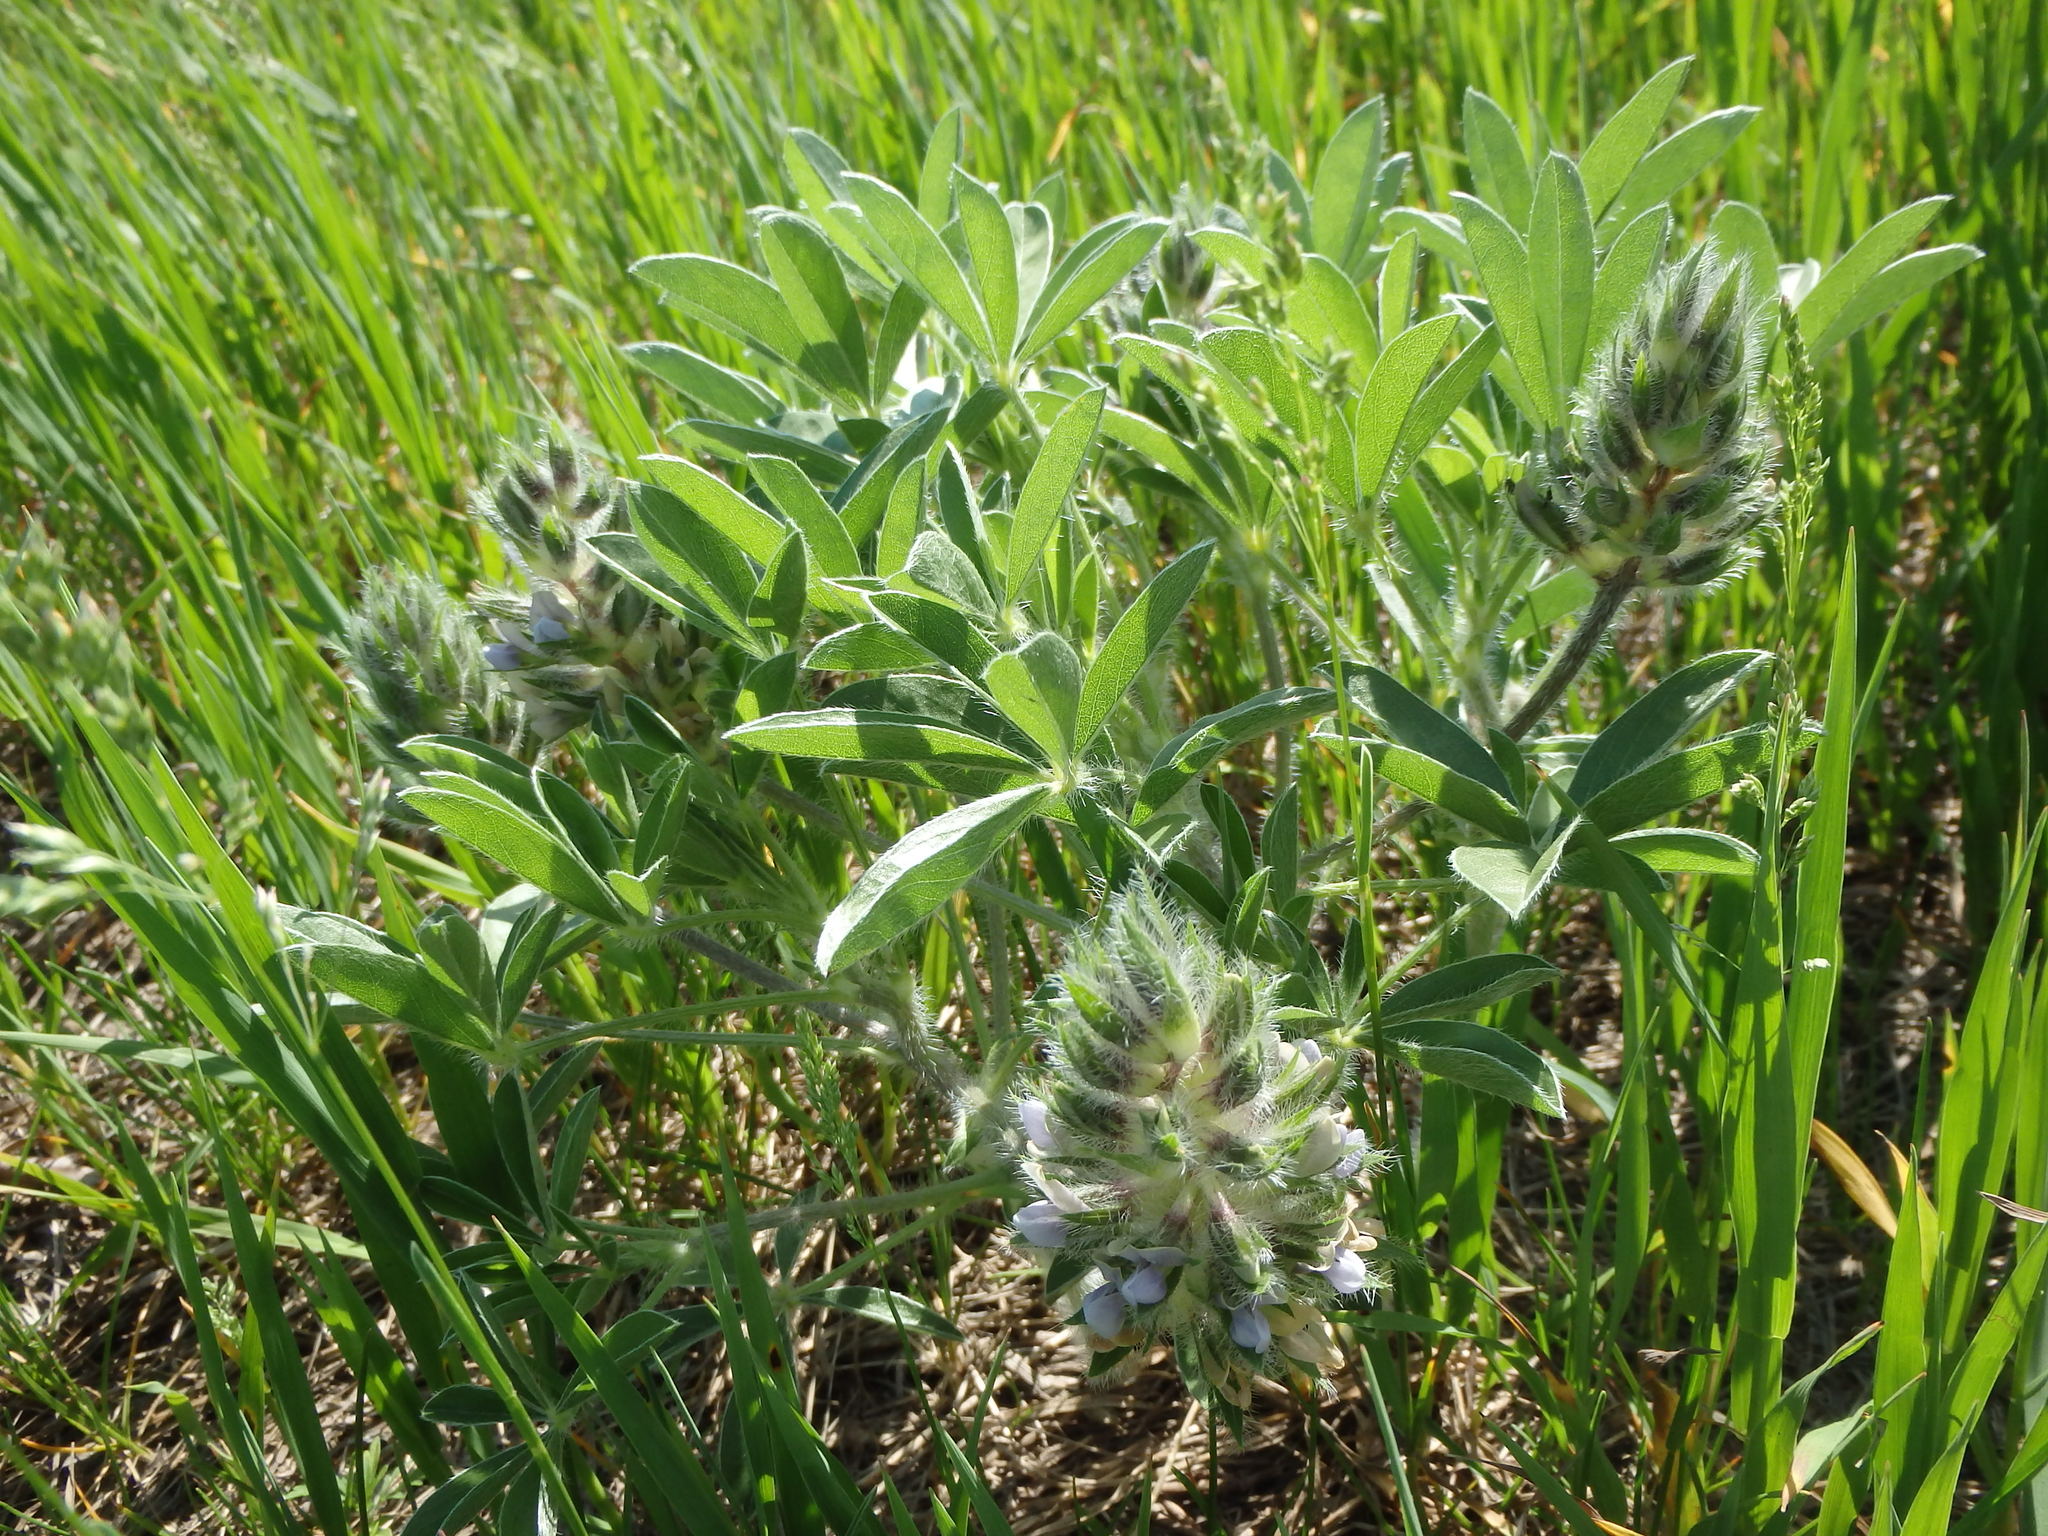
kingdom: Plantae
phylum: Tracheophyta
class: Magnoliopsida
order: Fabales
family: Fabaceae
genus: Pediomelum
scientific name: Pediomelum esculentum
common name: Indian-turnip
